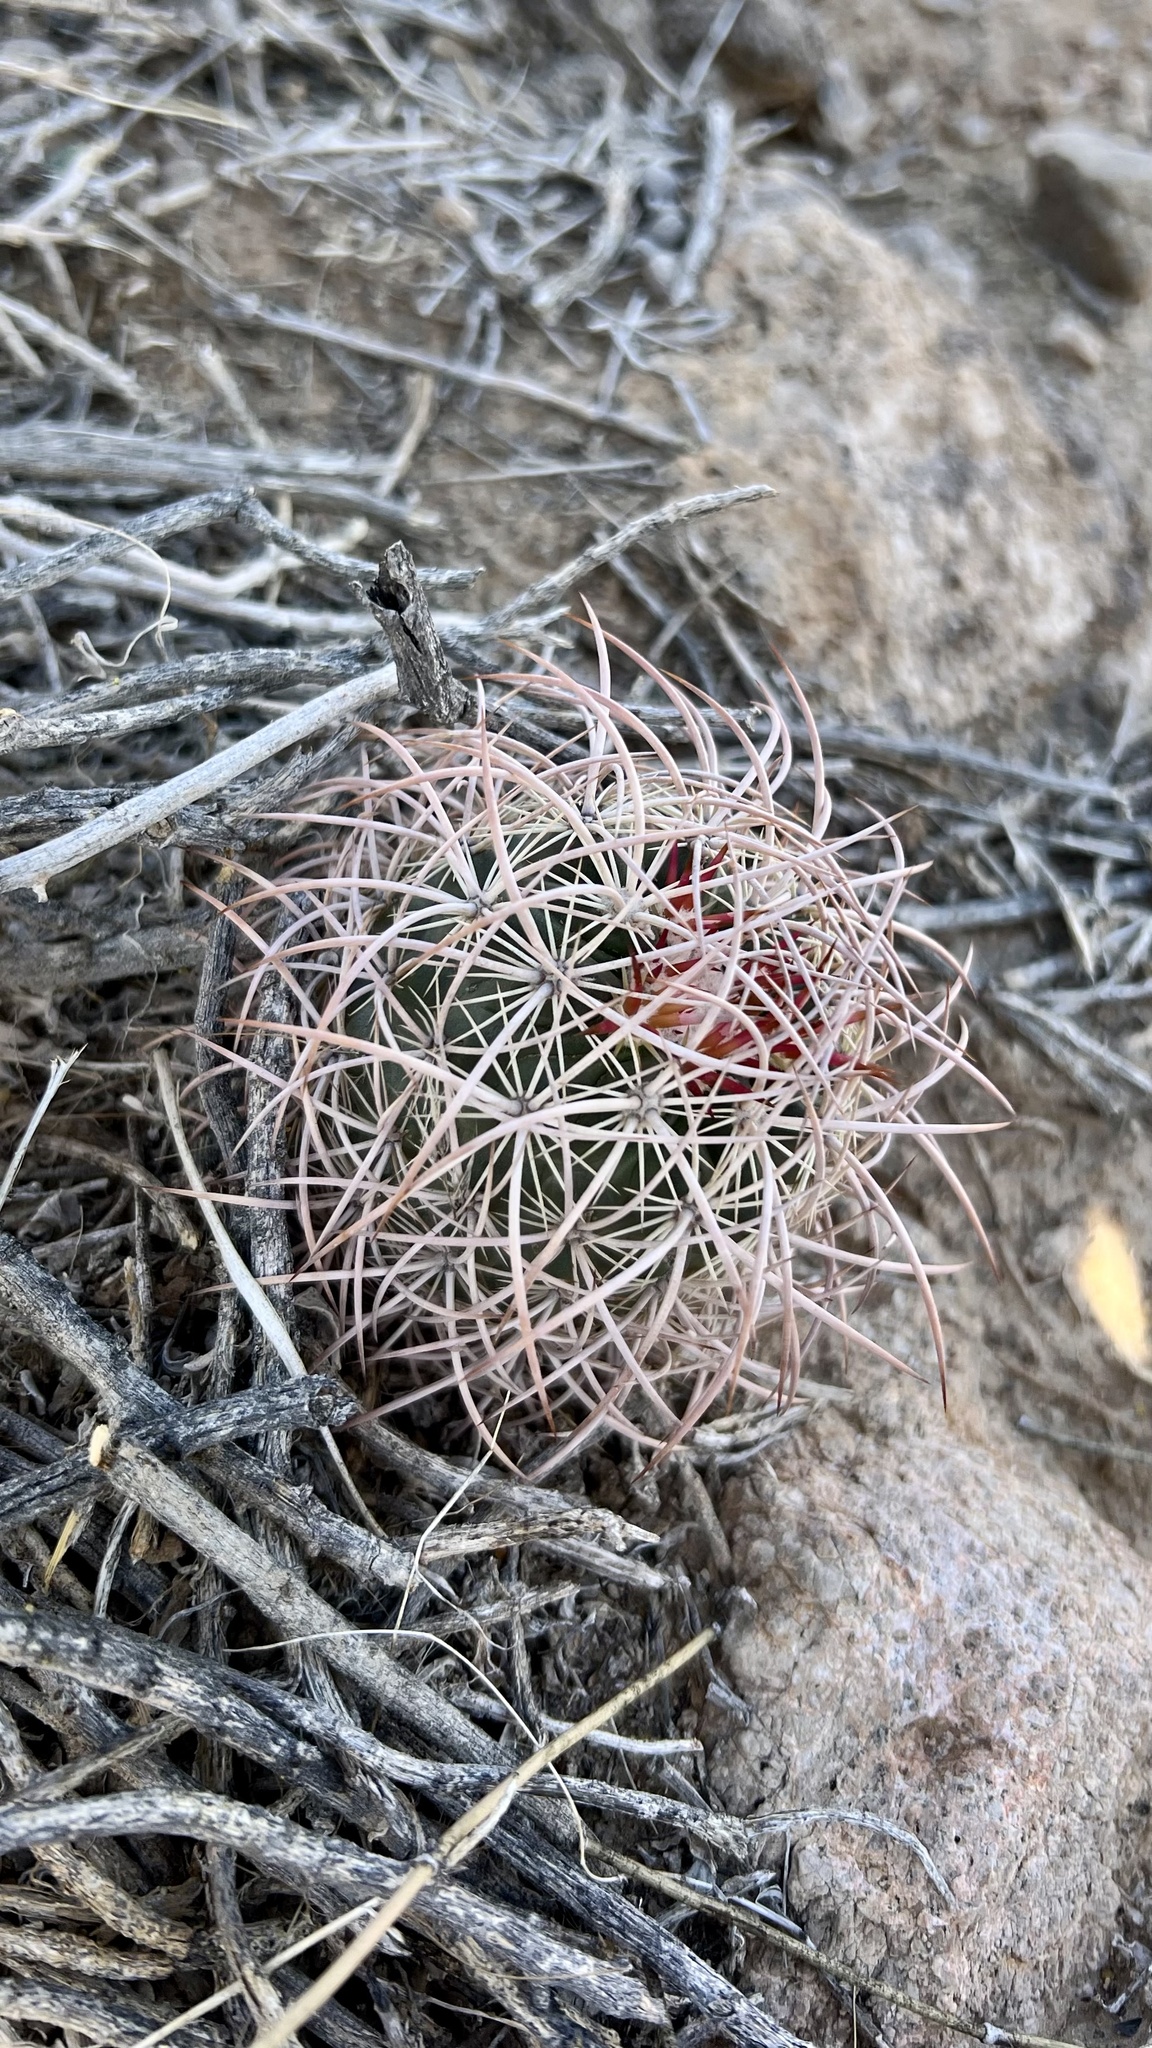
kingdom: Plantae
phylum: Tracheophyta
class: Magnoliopsida
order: Caryophyllales
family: Cactaceae
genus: Sclerocactus
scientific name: Sclerocactus johnsonii
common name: Eight-spine fishhook cactus
